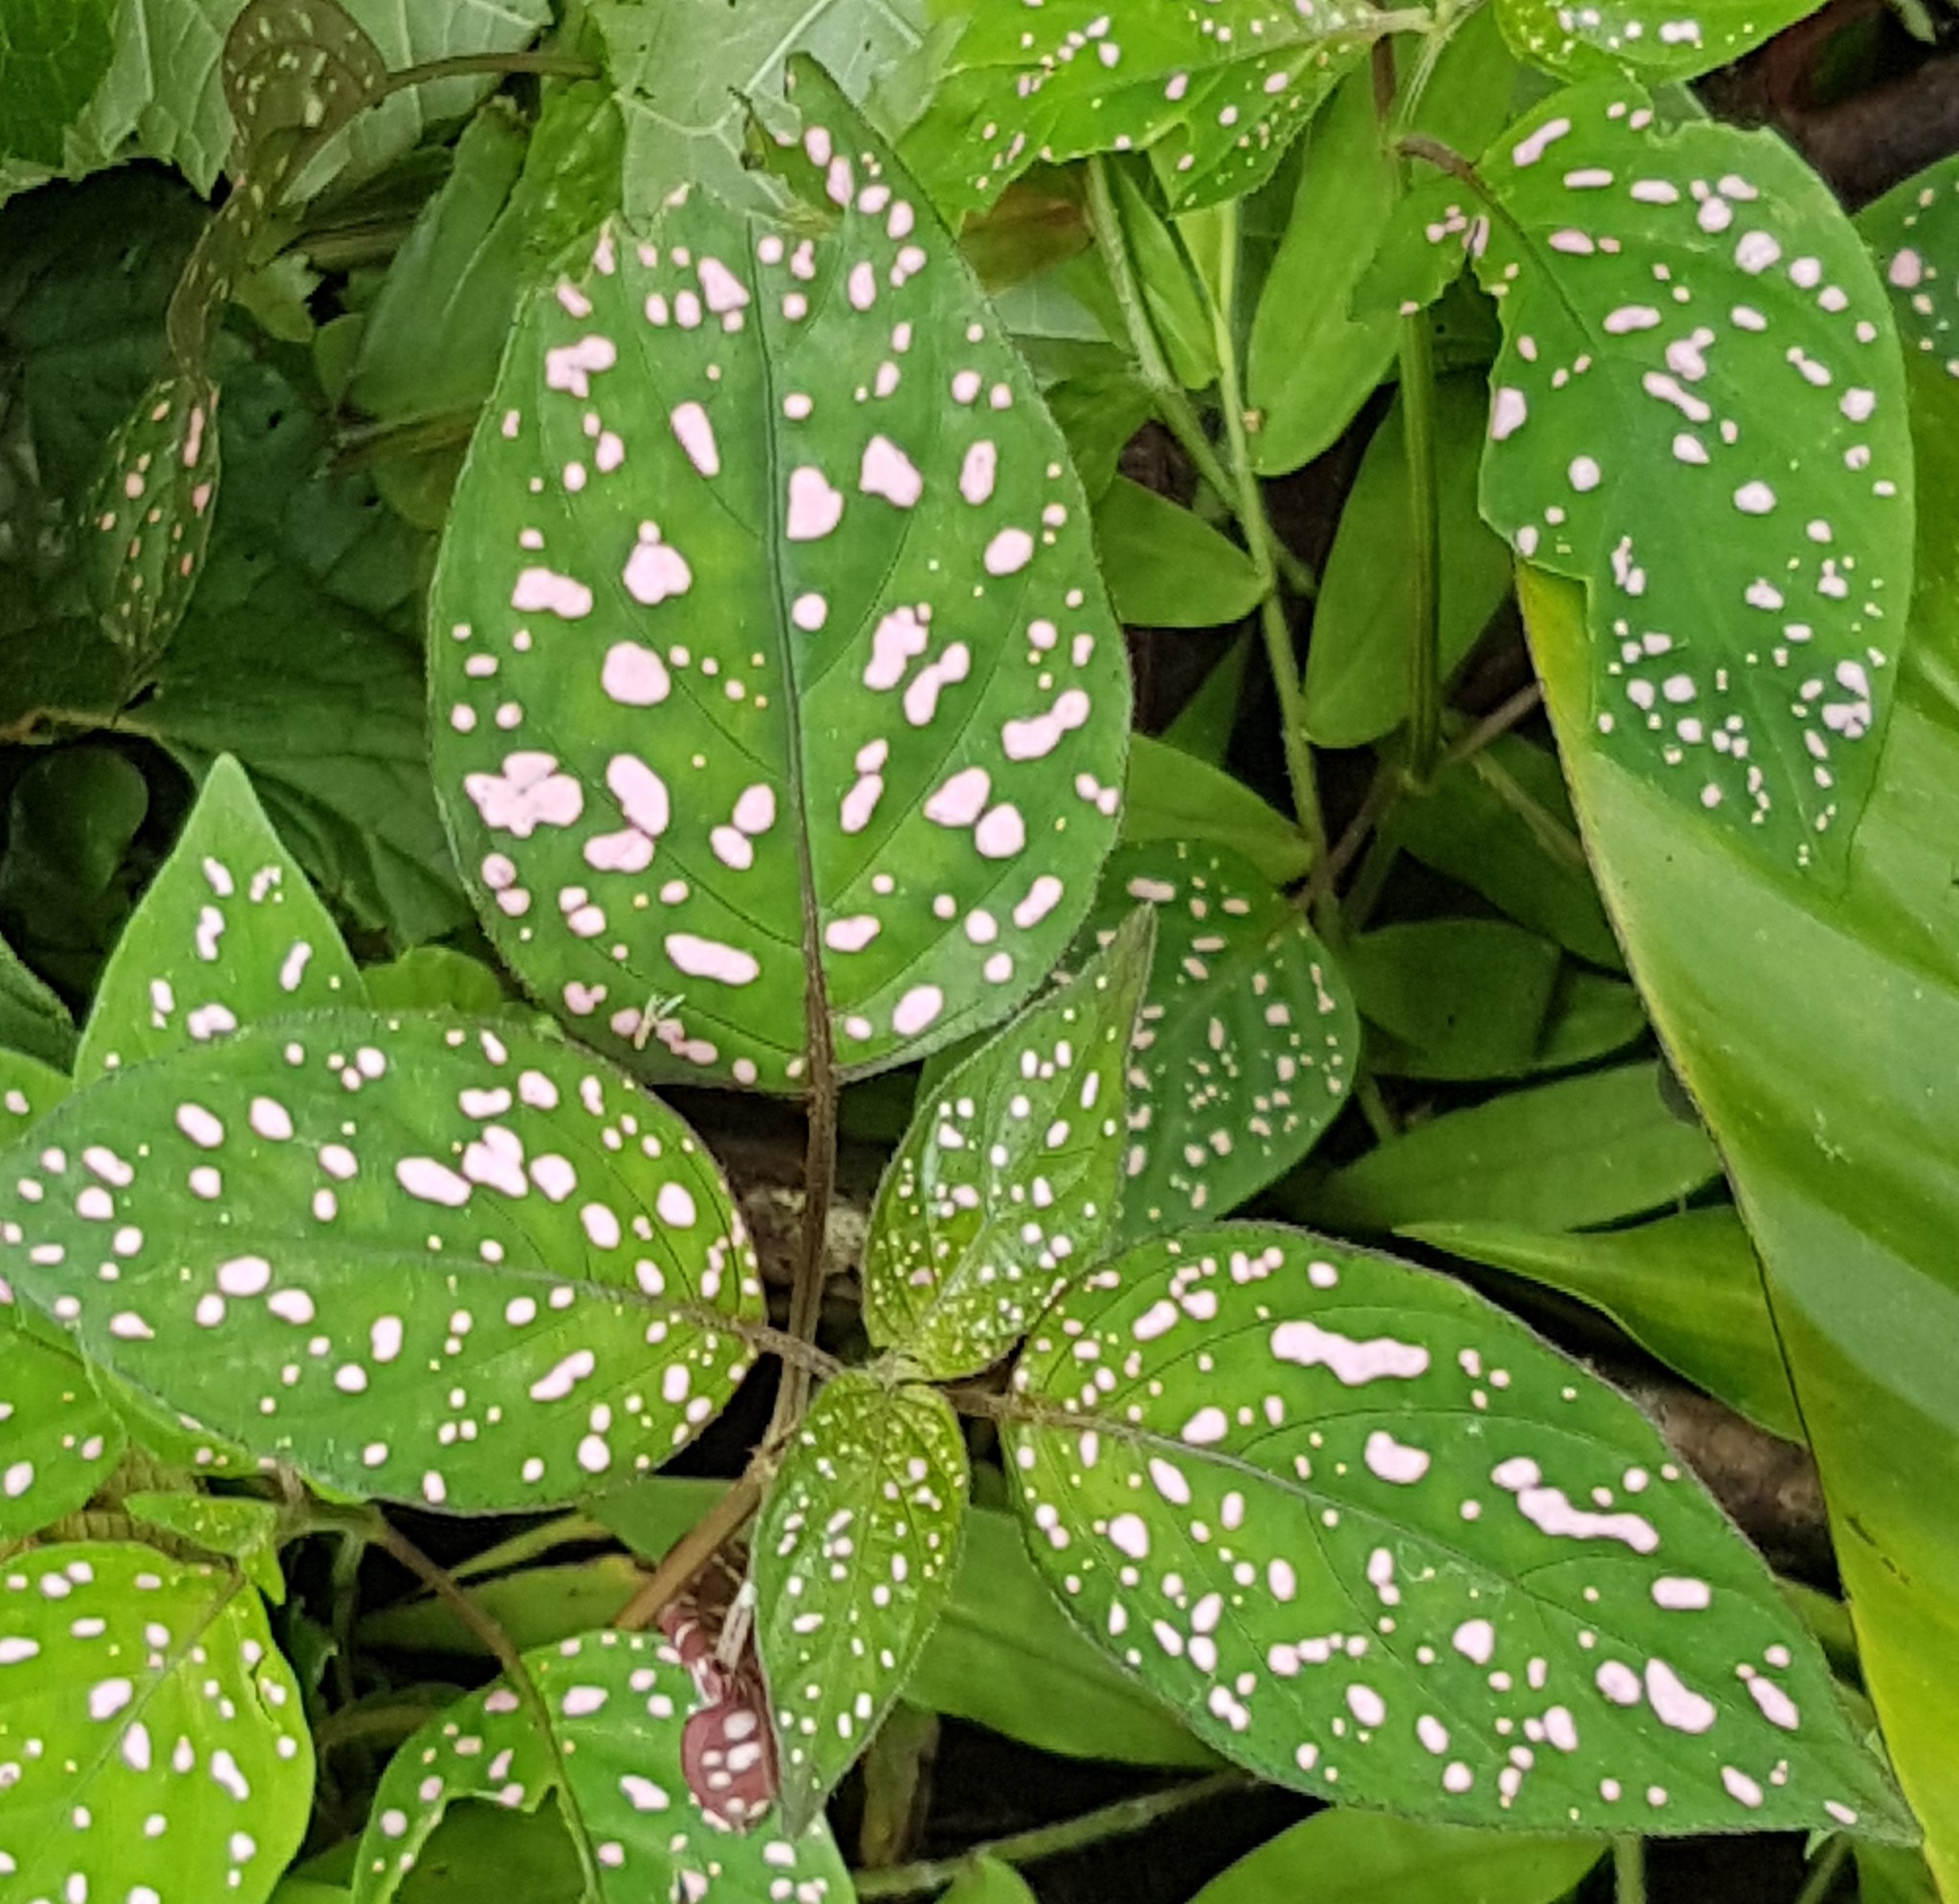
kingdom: Plantae
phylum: Tracheophyta
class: Magnoliopsida
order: Lamiales
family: Acanthaceae
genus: Hypoestes
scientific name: Hypoestes phyllostachya
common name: Polkadot-plant
